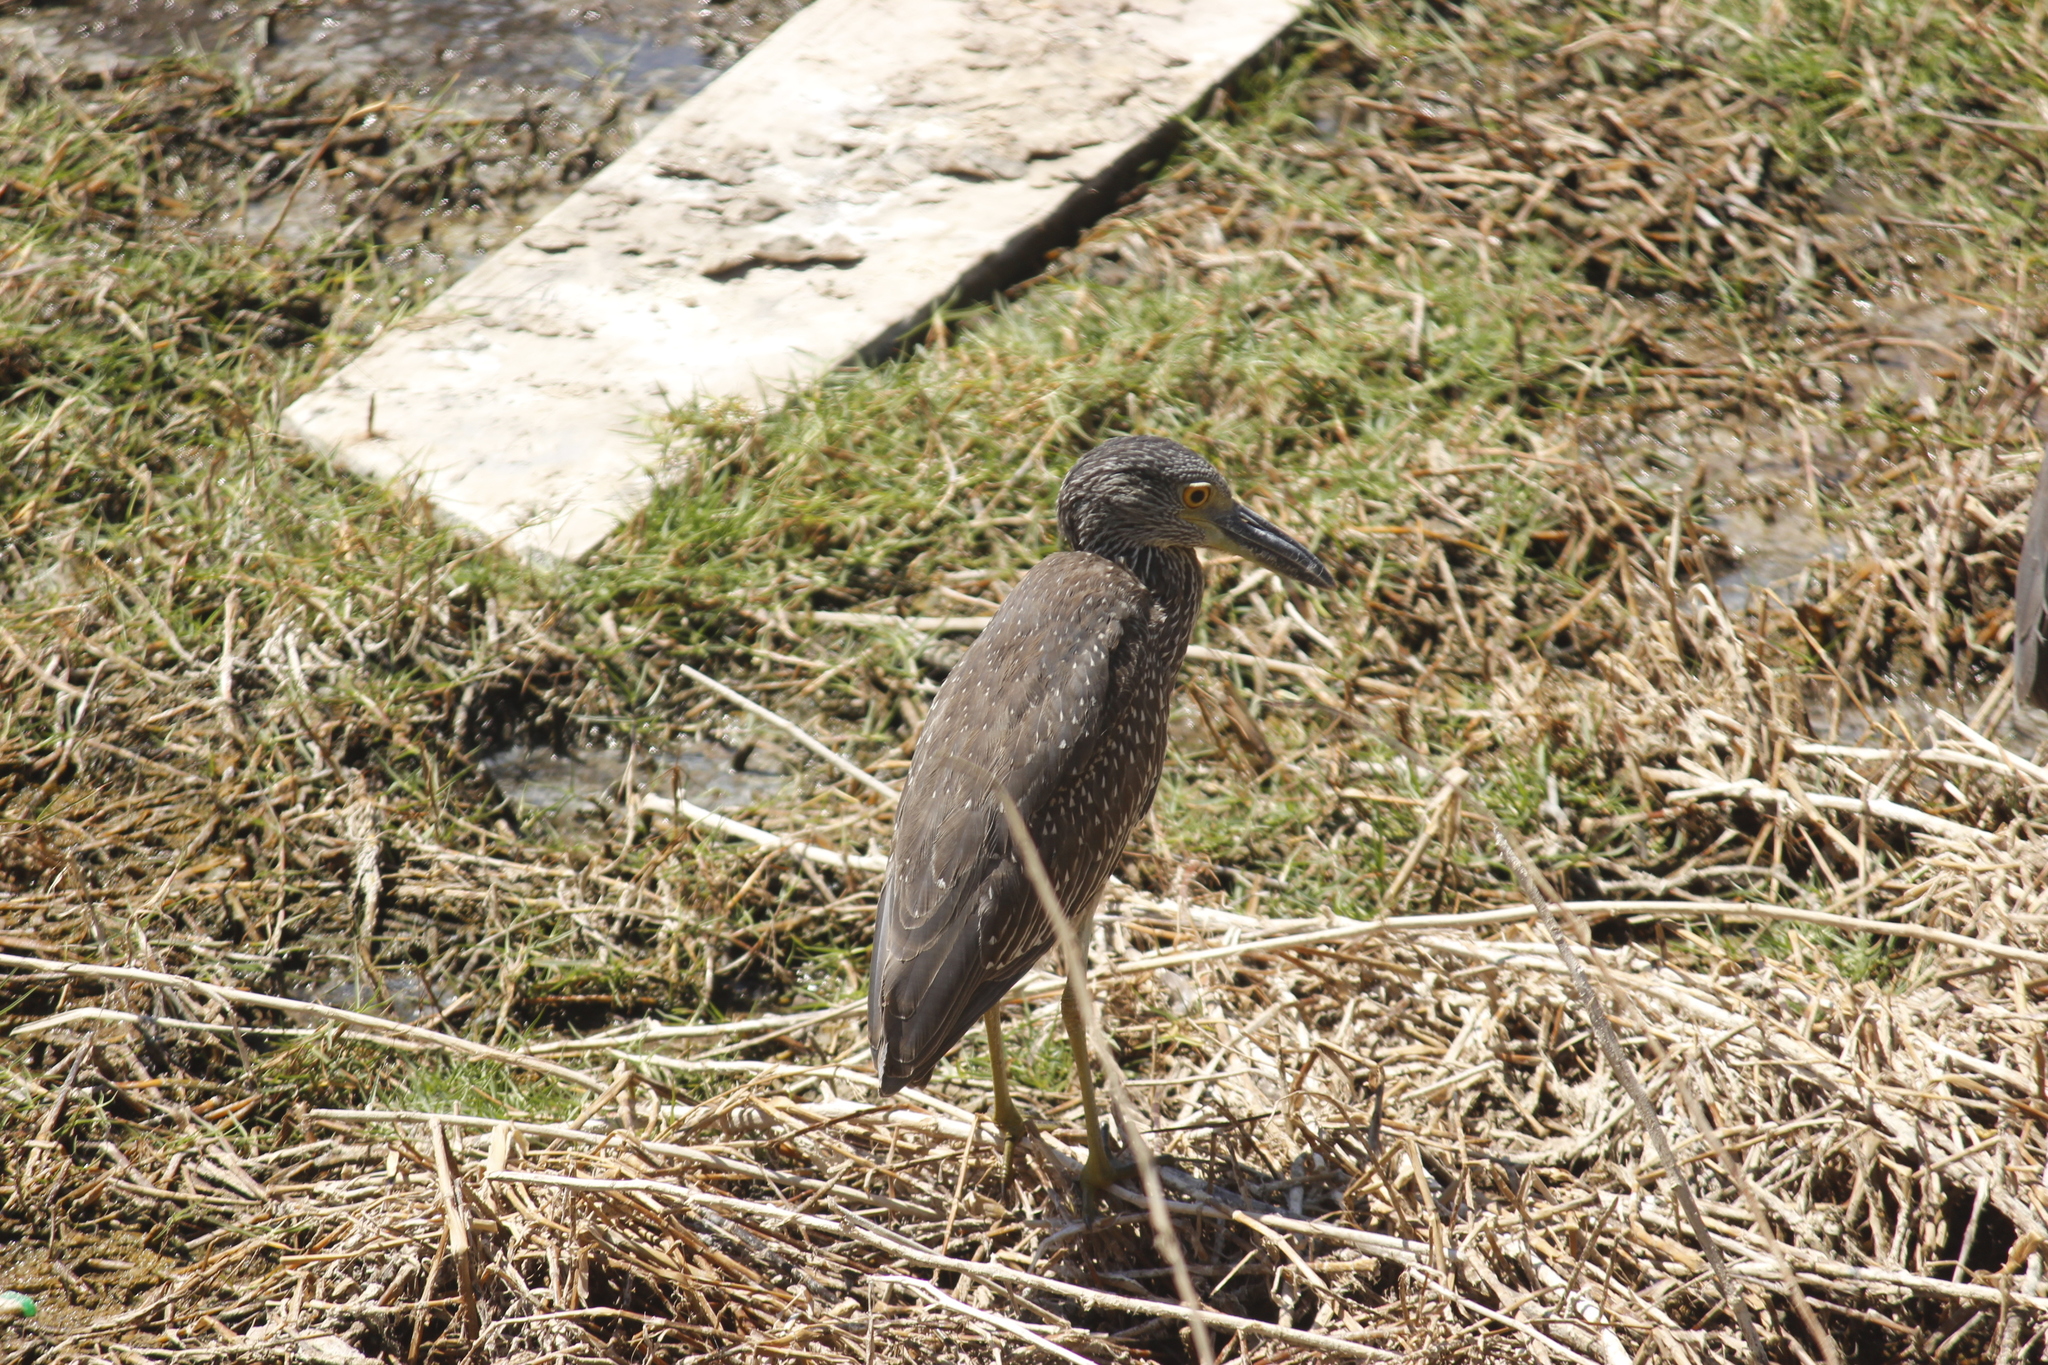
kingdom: Animalia
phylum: Chordata
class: Aves
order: Pelecaniformes
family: Ardeidae
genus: Nyctanassa
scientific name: Nyctanassa violacea
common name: Yellow-crowned night heron
